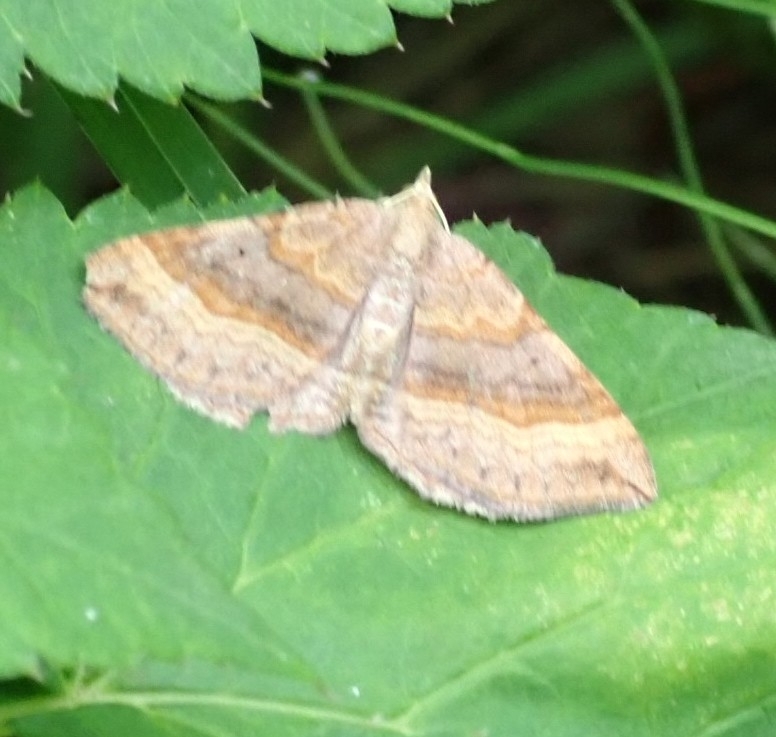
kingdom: Animalia
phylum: Arthropoda
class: Insecta
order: Lepidoptera
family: Geometridae
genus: Scotopteryx
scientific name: Scotopteryx chenopodiata
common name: Shaded broad-bar
